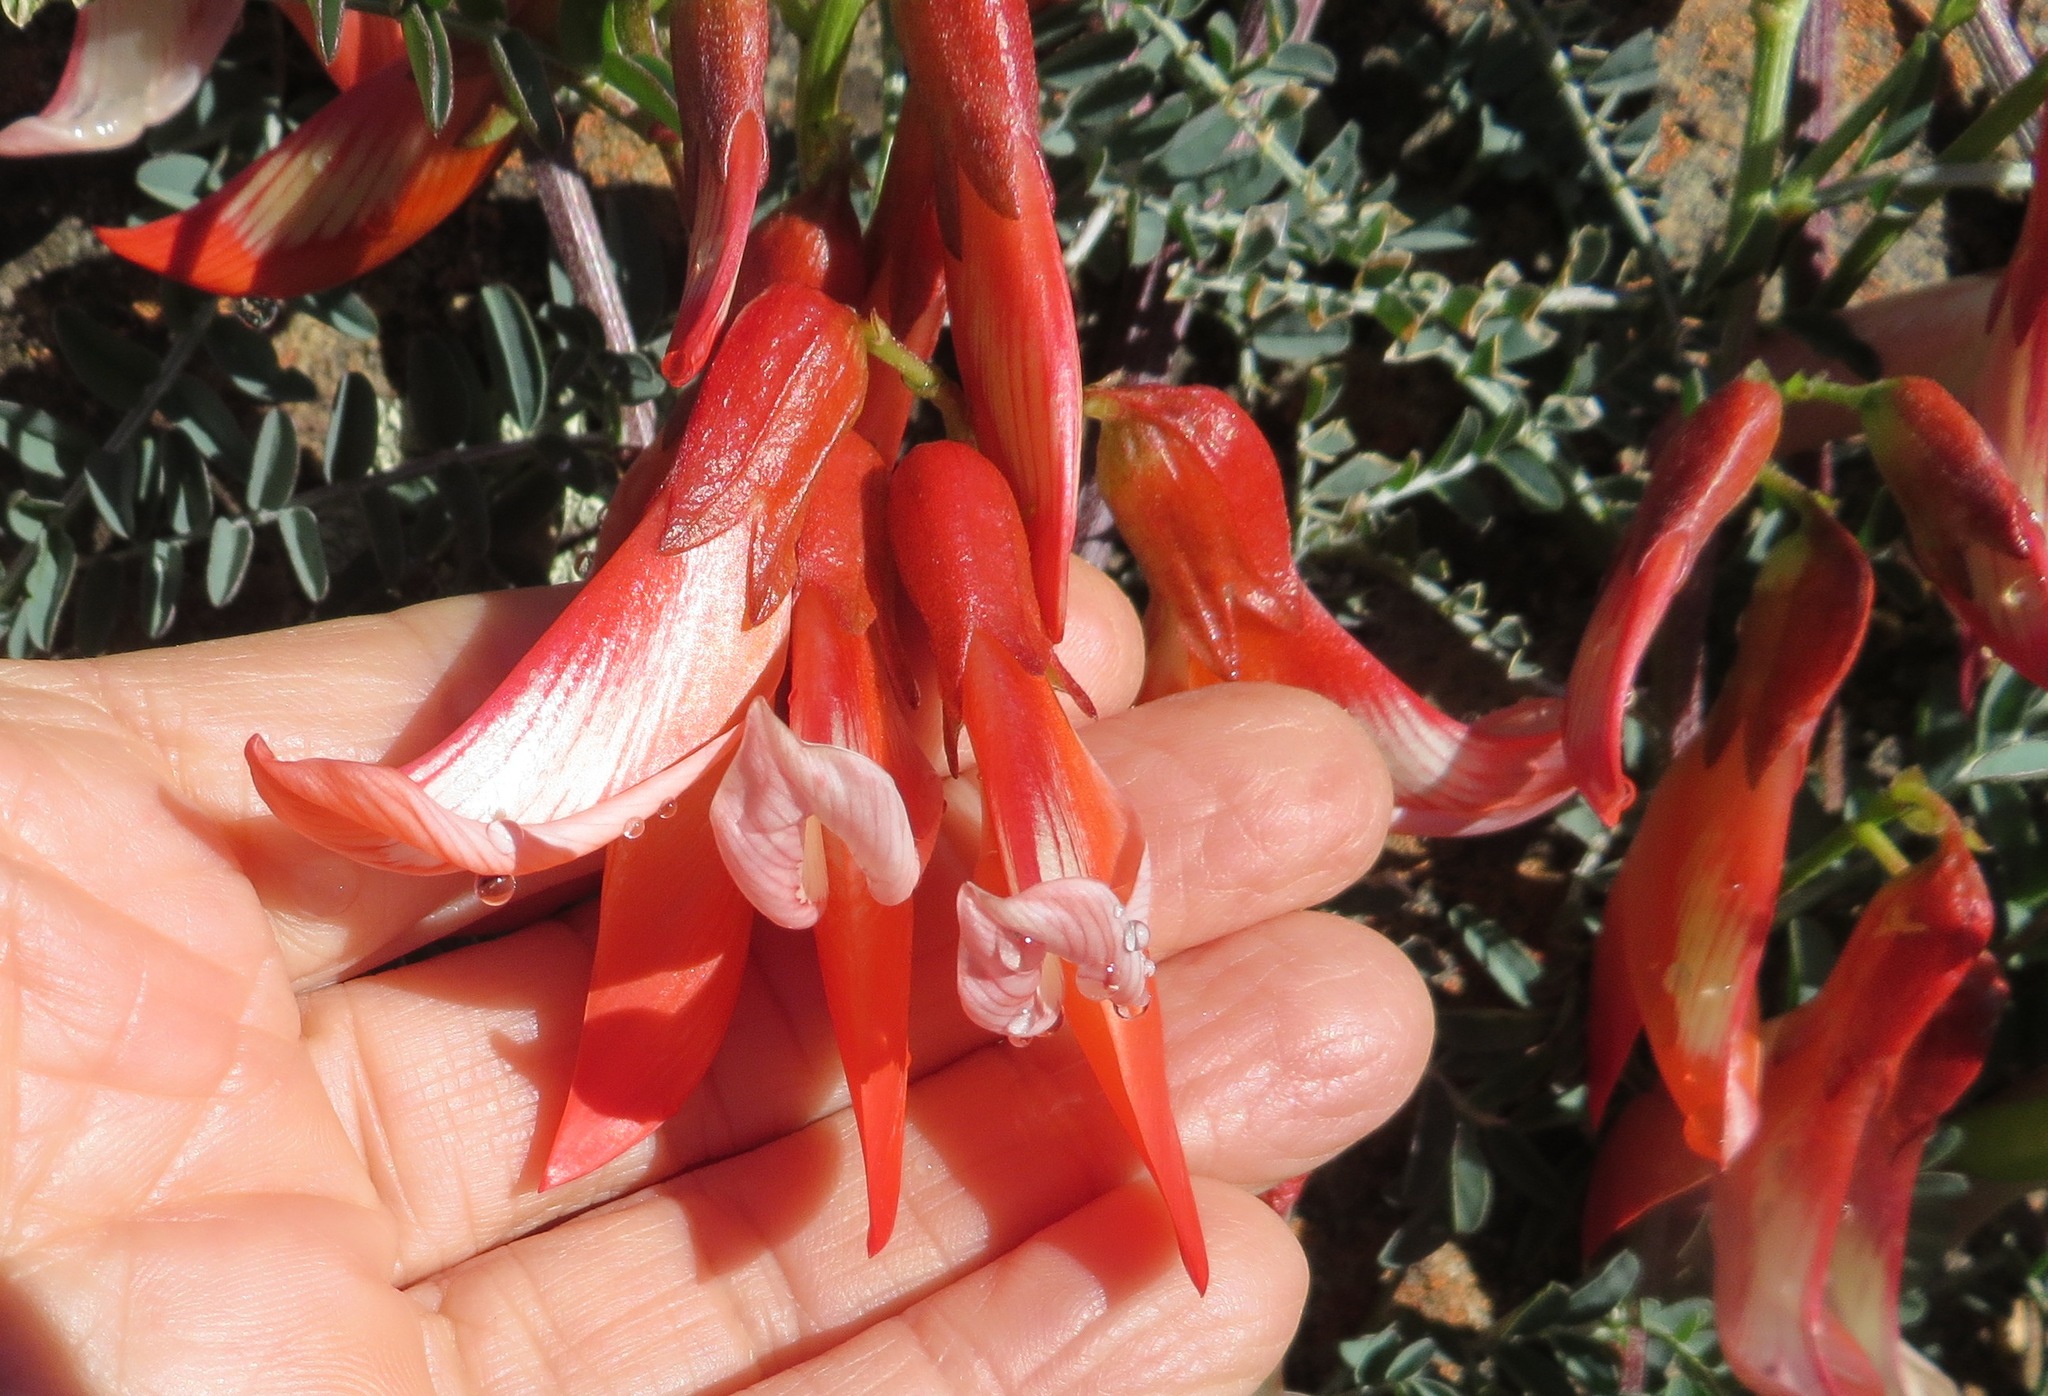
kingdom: Plantae
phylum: Tracheophyta
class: Magnoliopsida
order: Fabales
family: Fabaceae
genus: Lessertia
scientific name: Lessertia frutescens
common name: Balloon-pea
